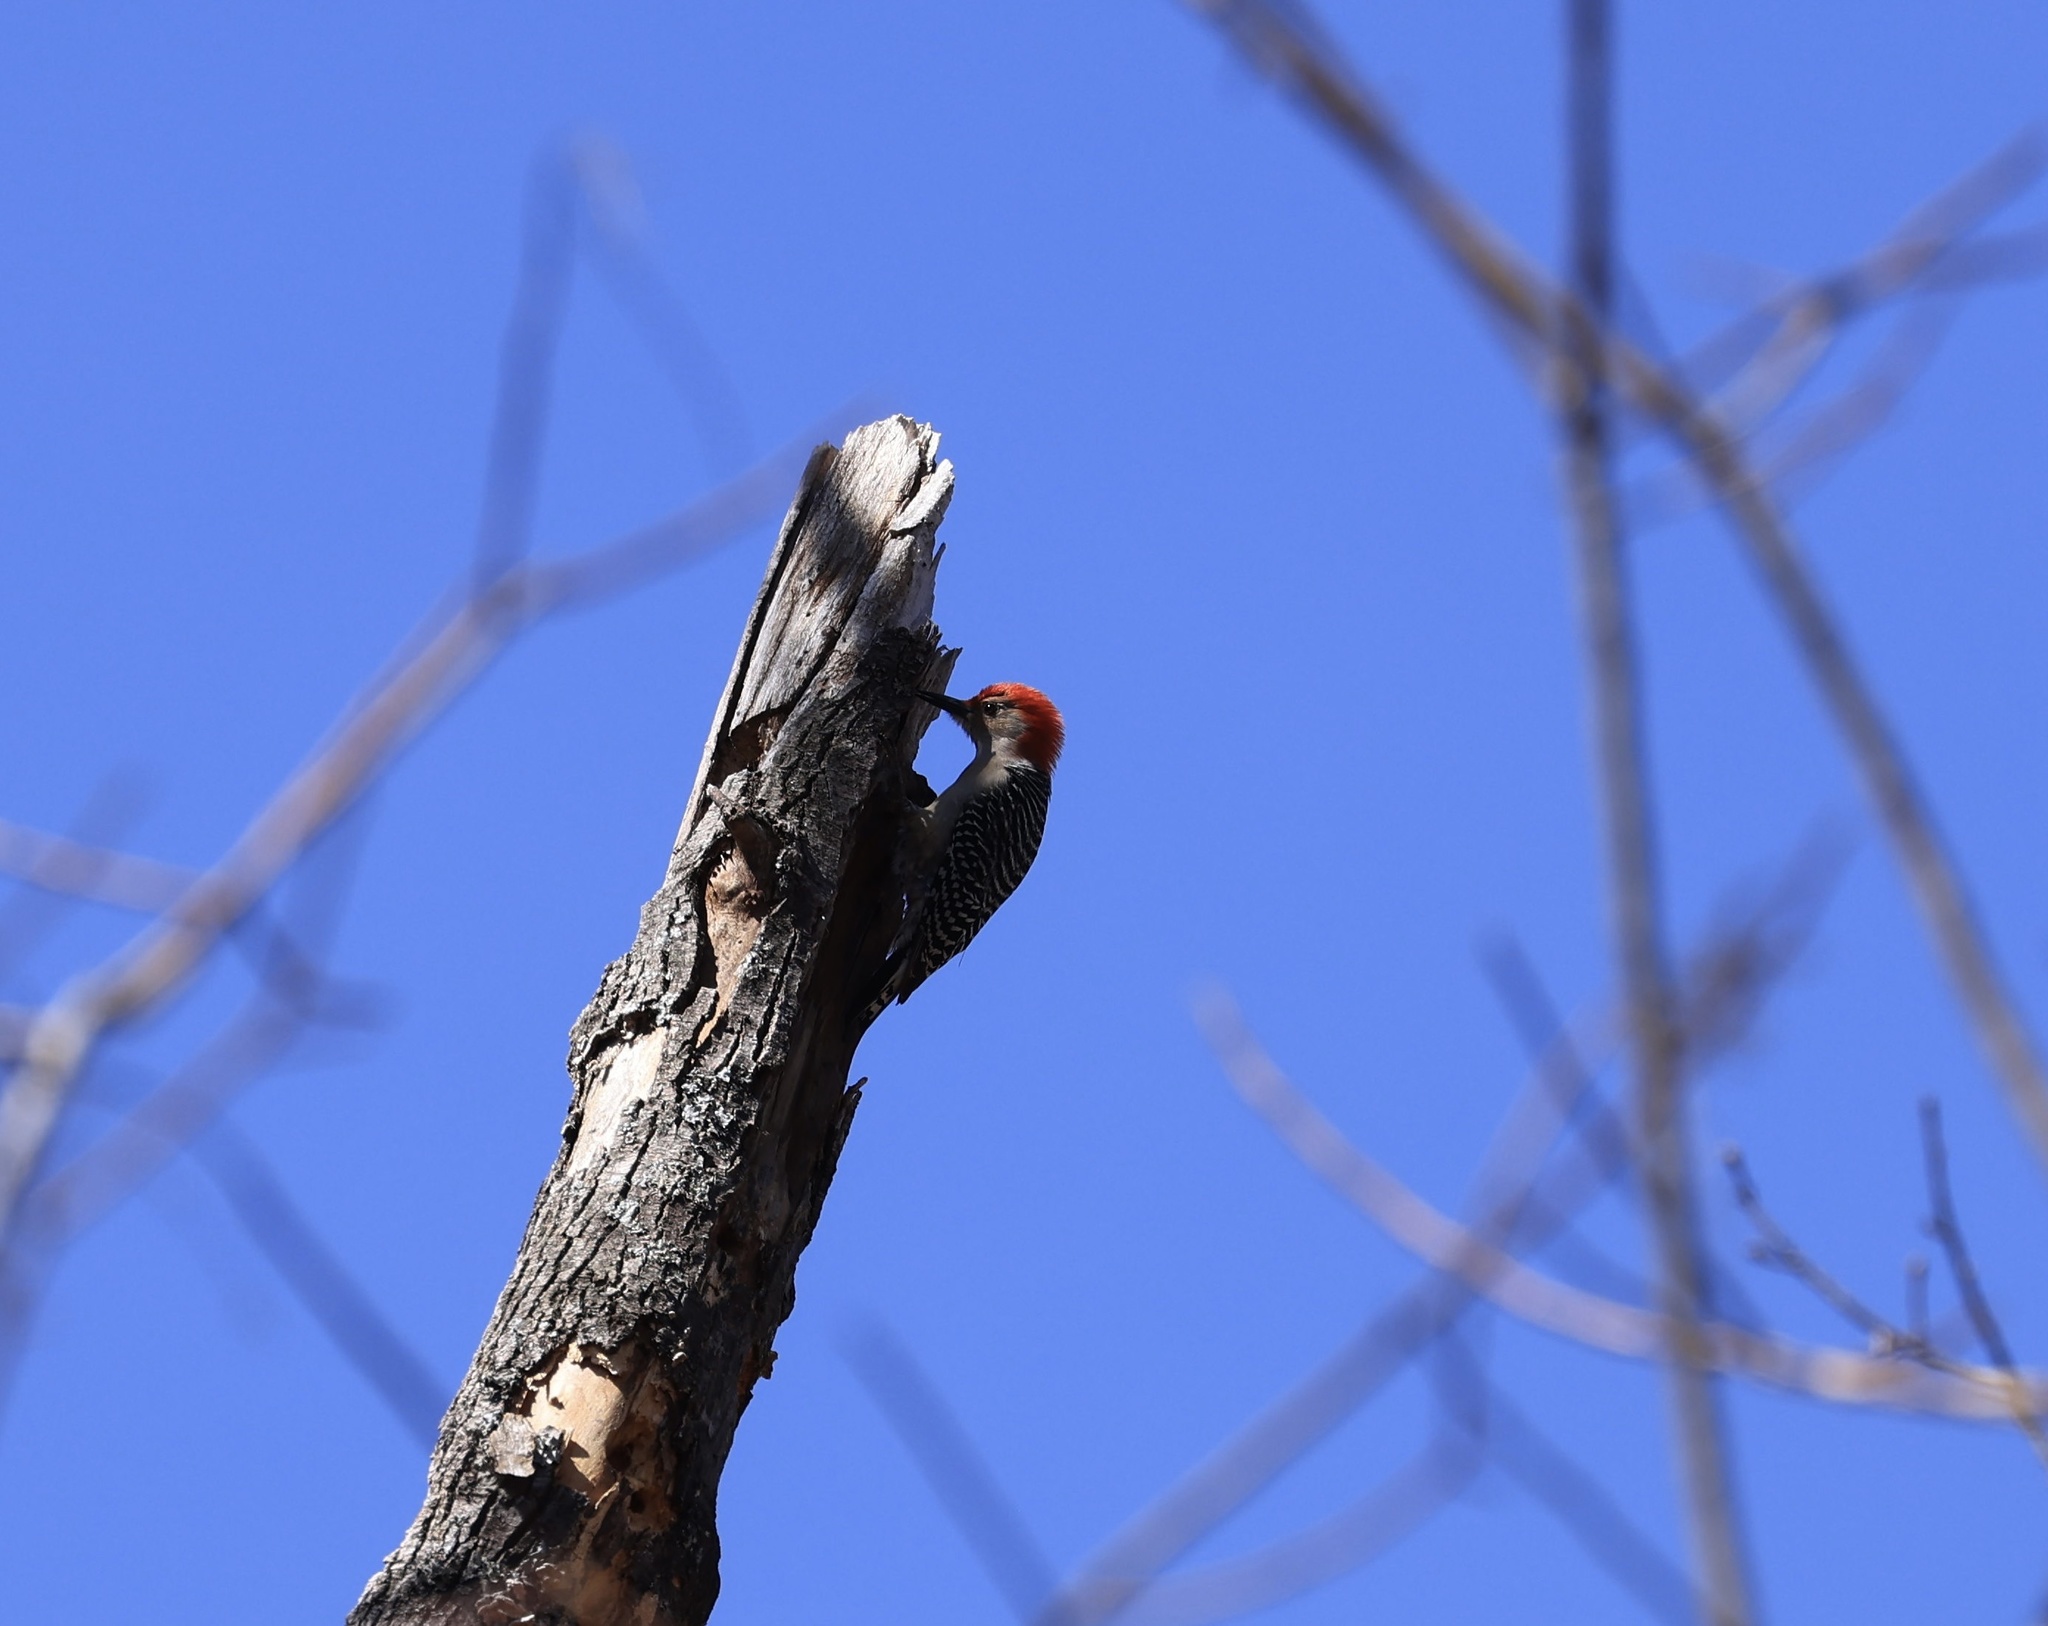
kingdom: Animalia
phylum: Chordata
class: Aves
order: Piciformes
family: Picidae
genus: Melanerpes
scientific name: Melanerpes carolinus
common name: Red-bellied woodpecker
